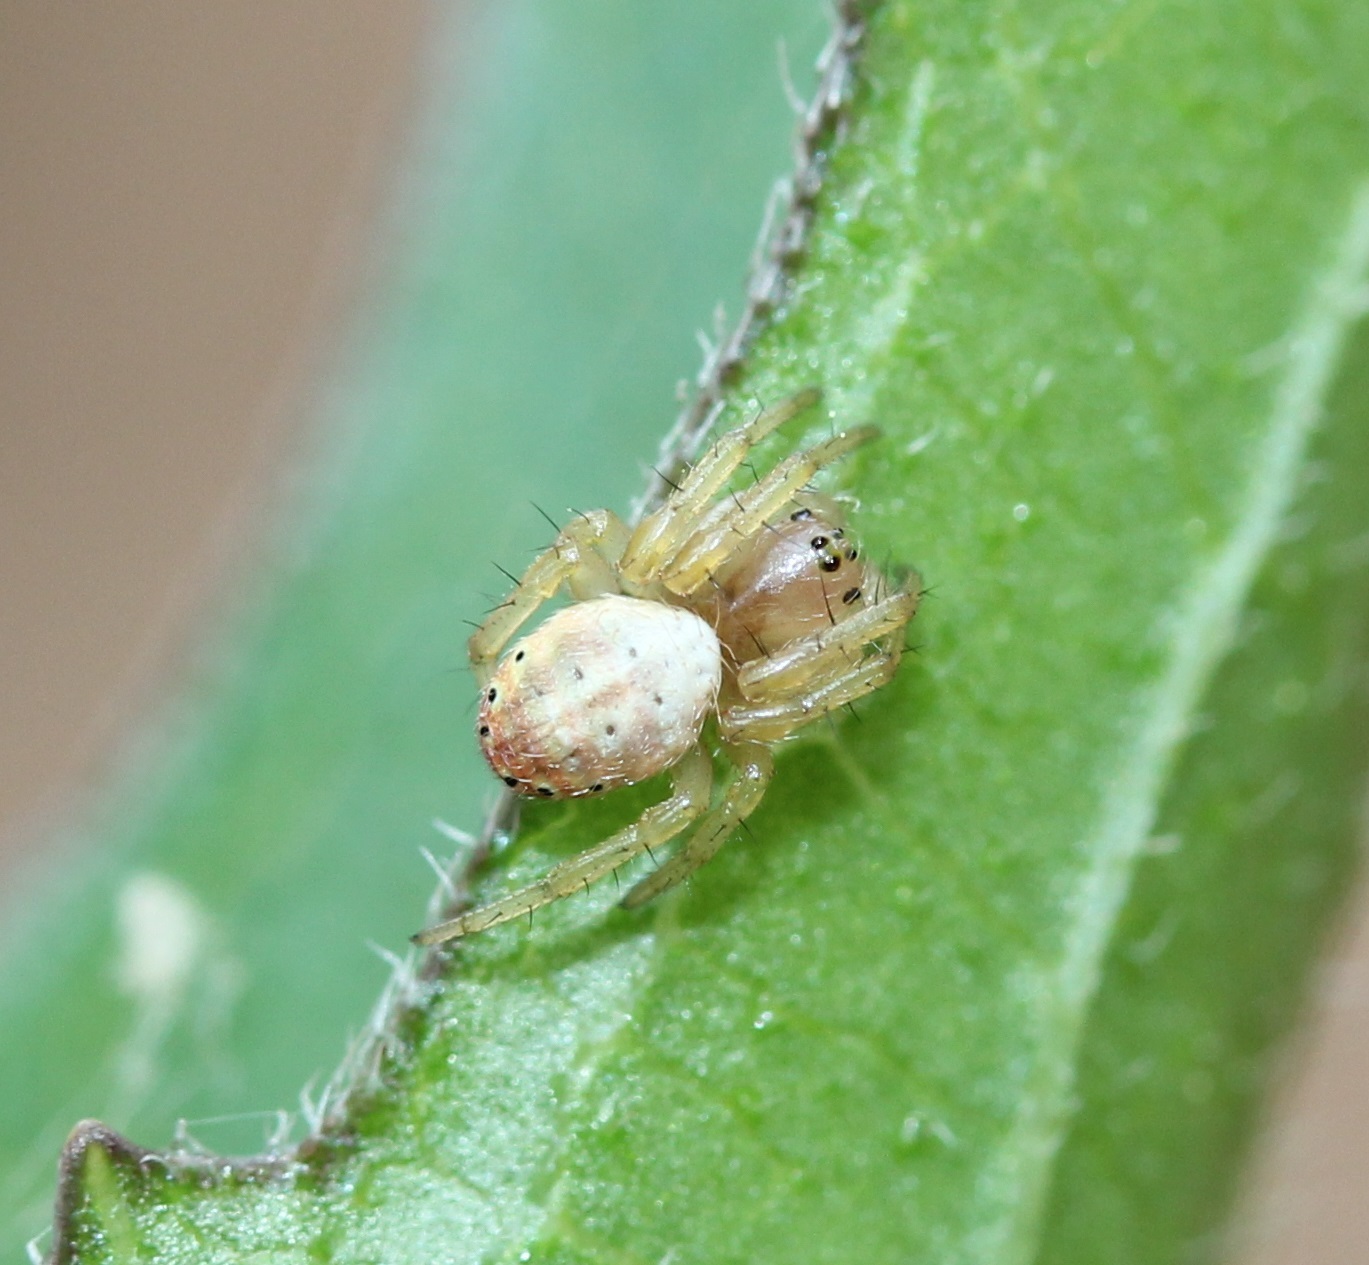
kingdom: Animalia
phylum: Arthropoda
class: Arachnida
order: Araneae
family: Araneidae
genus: Araniella
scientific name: Araniella displicata
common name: Sixspotted orb weaver
